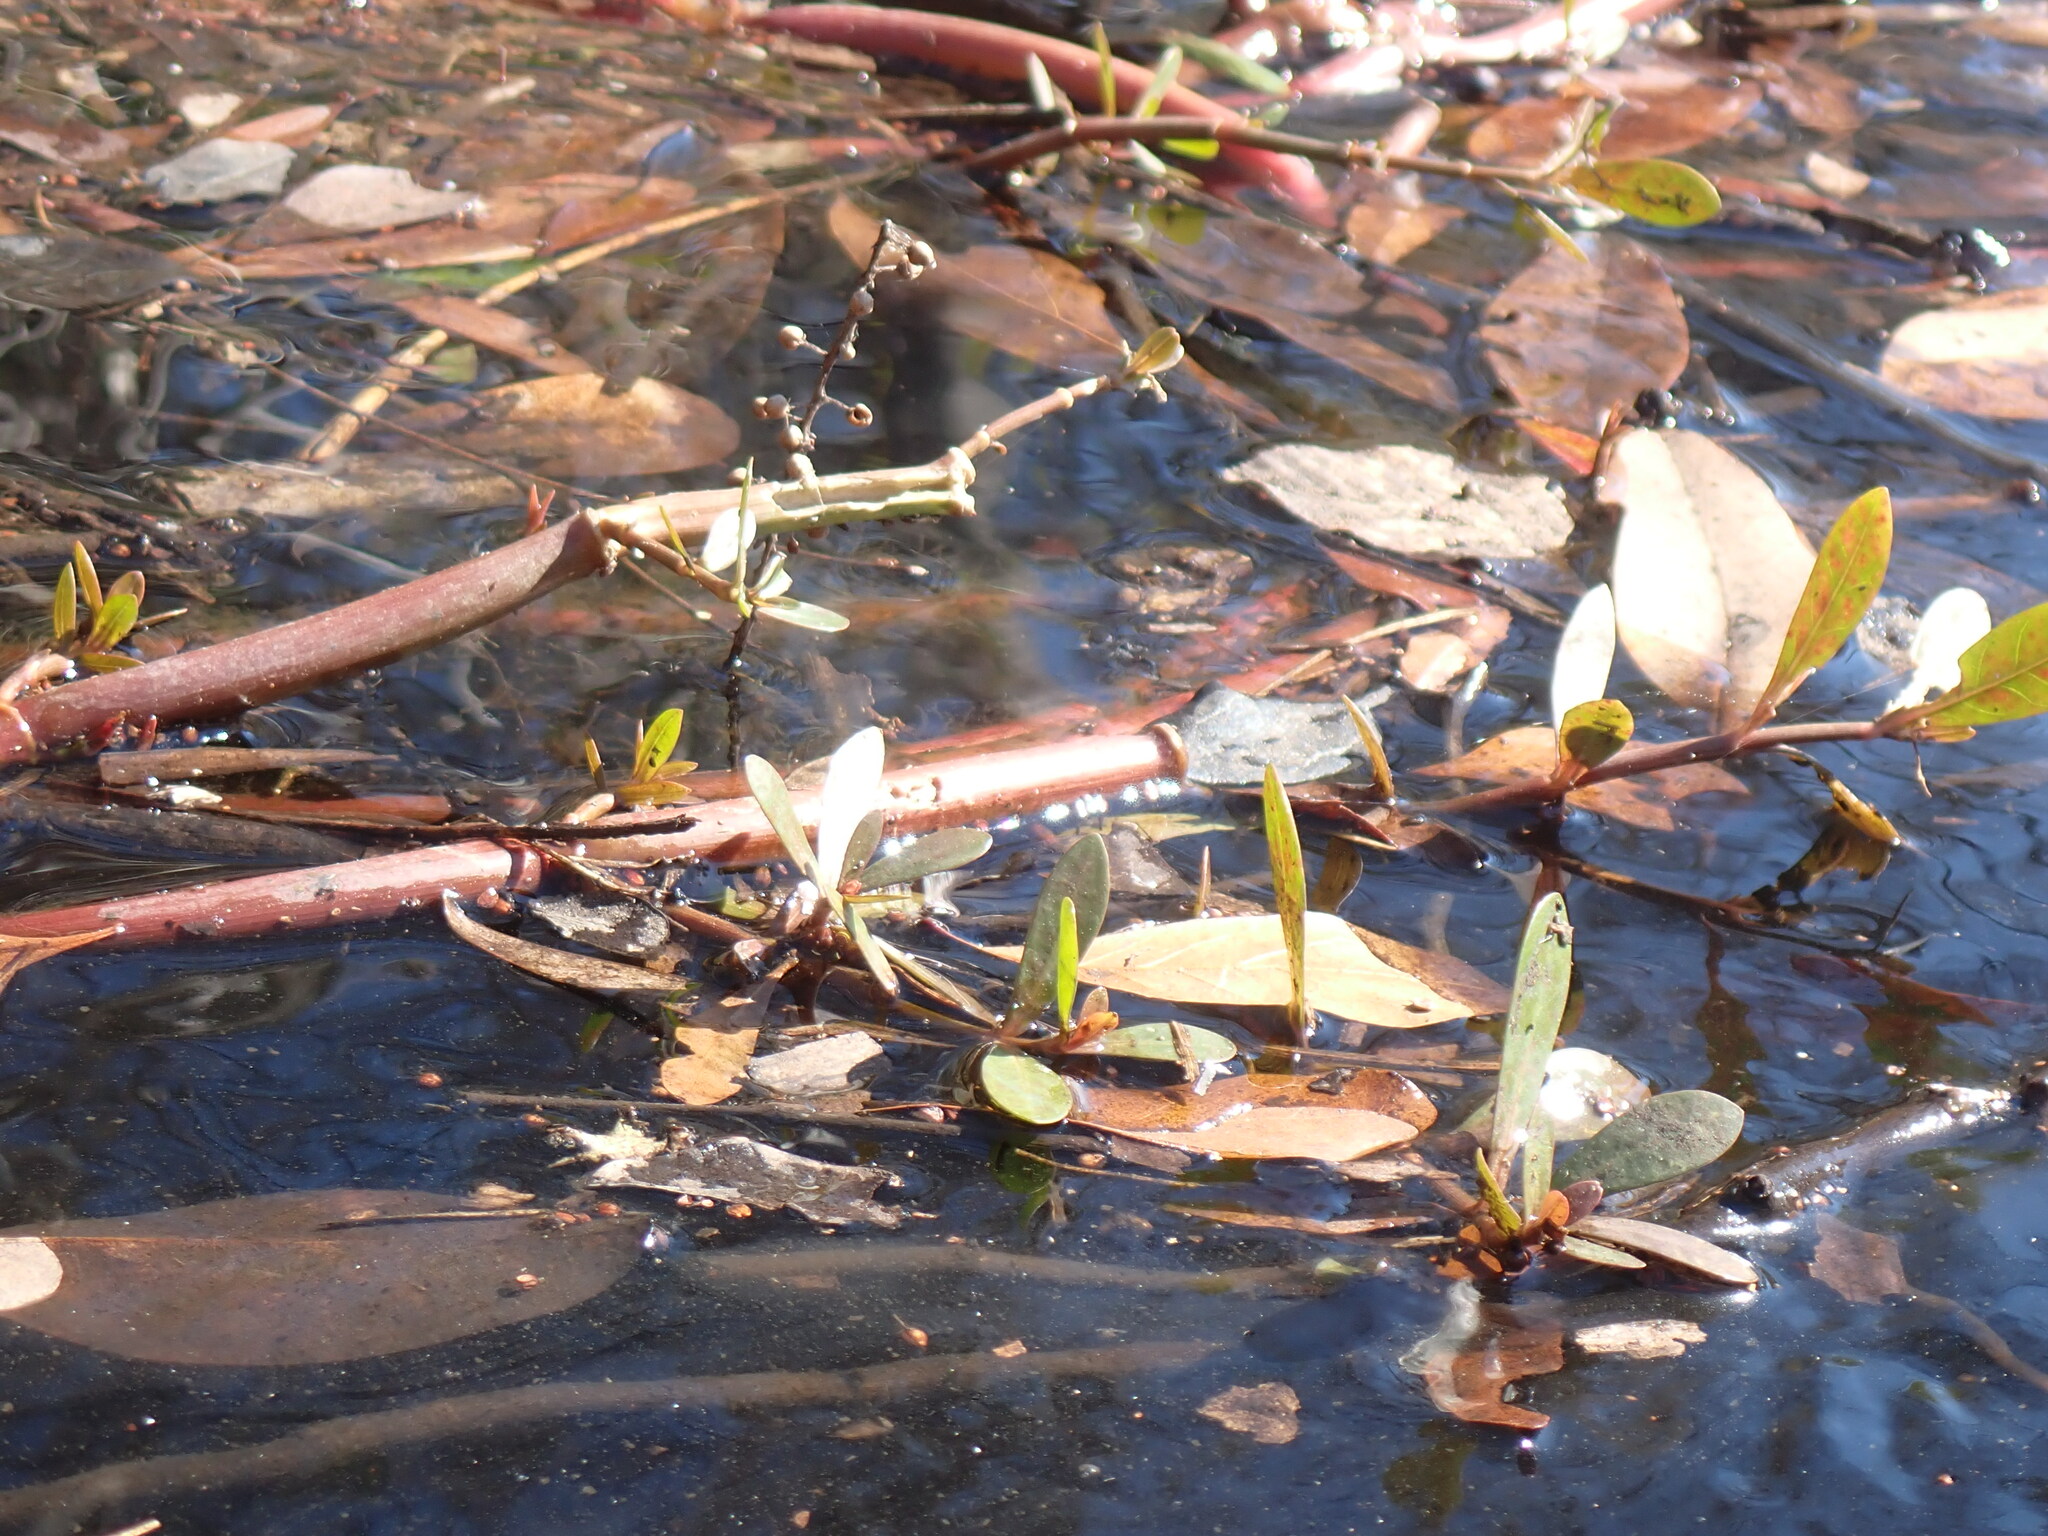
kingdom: Plantae
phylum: Tracheophyta
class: Magnoliopsida
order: Caryophyllales
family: Amaranthaceae
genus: Alternanthera
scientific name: Alternanthera philoxeroides
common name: Alligatorweed
